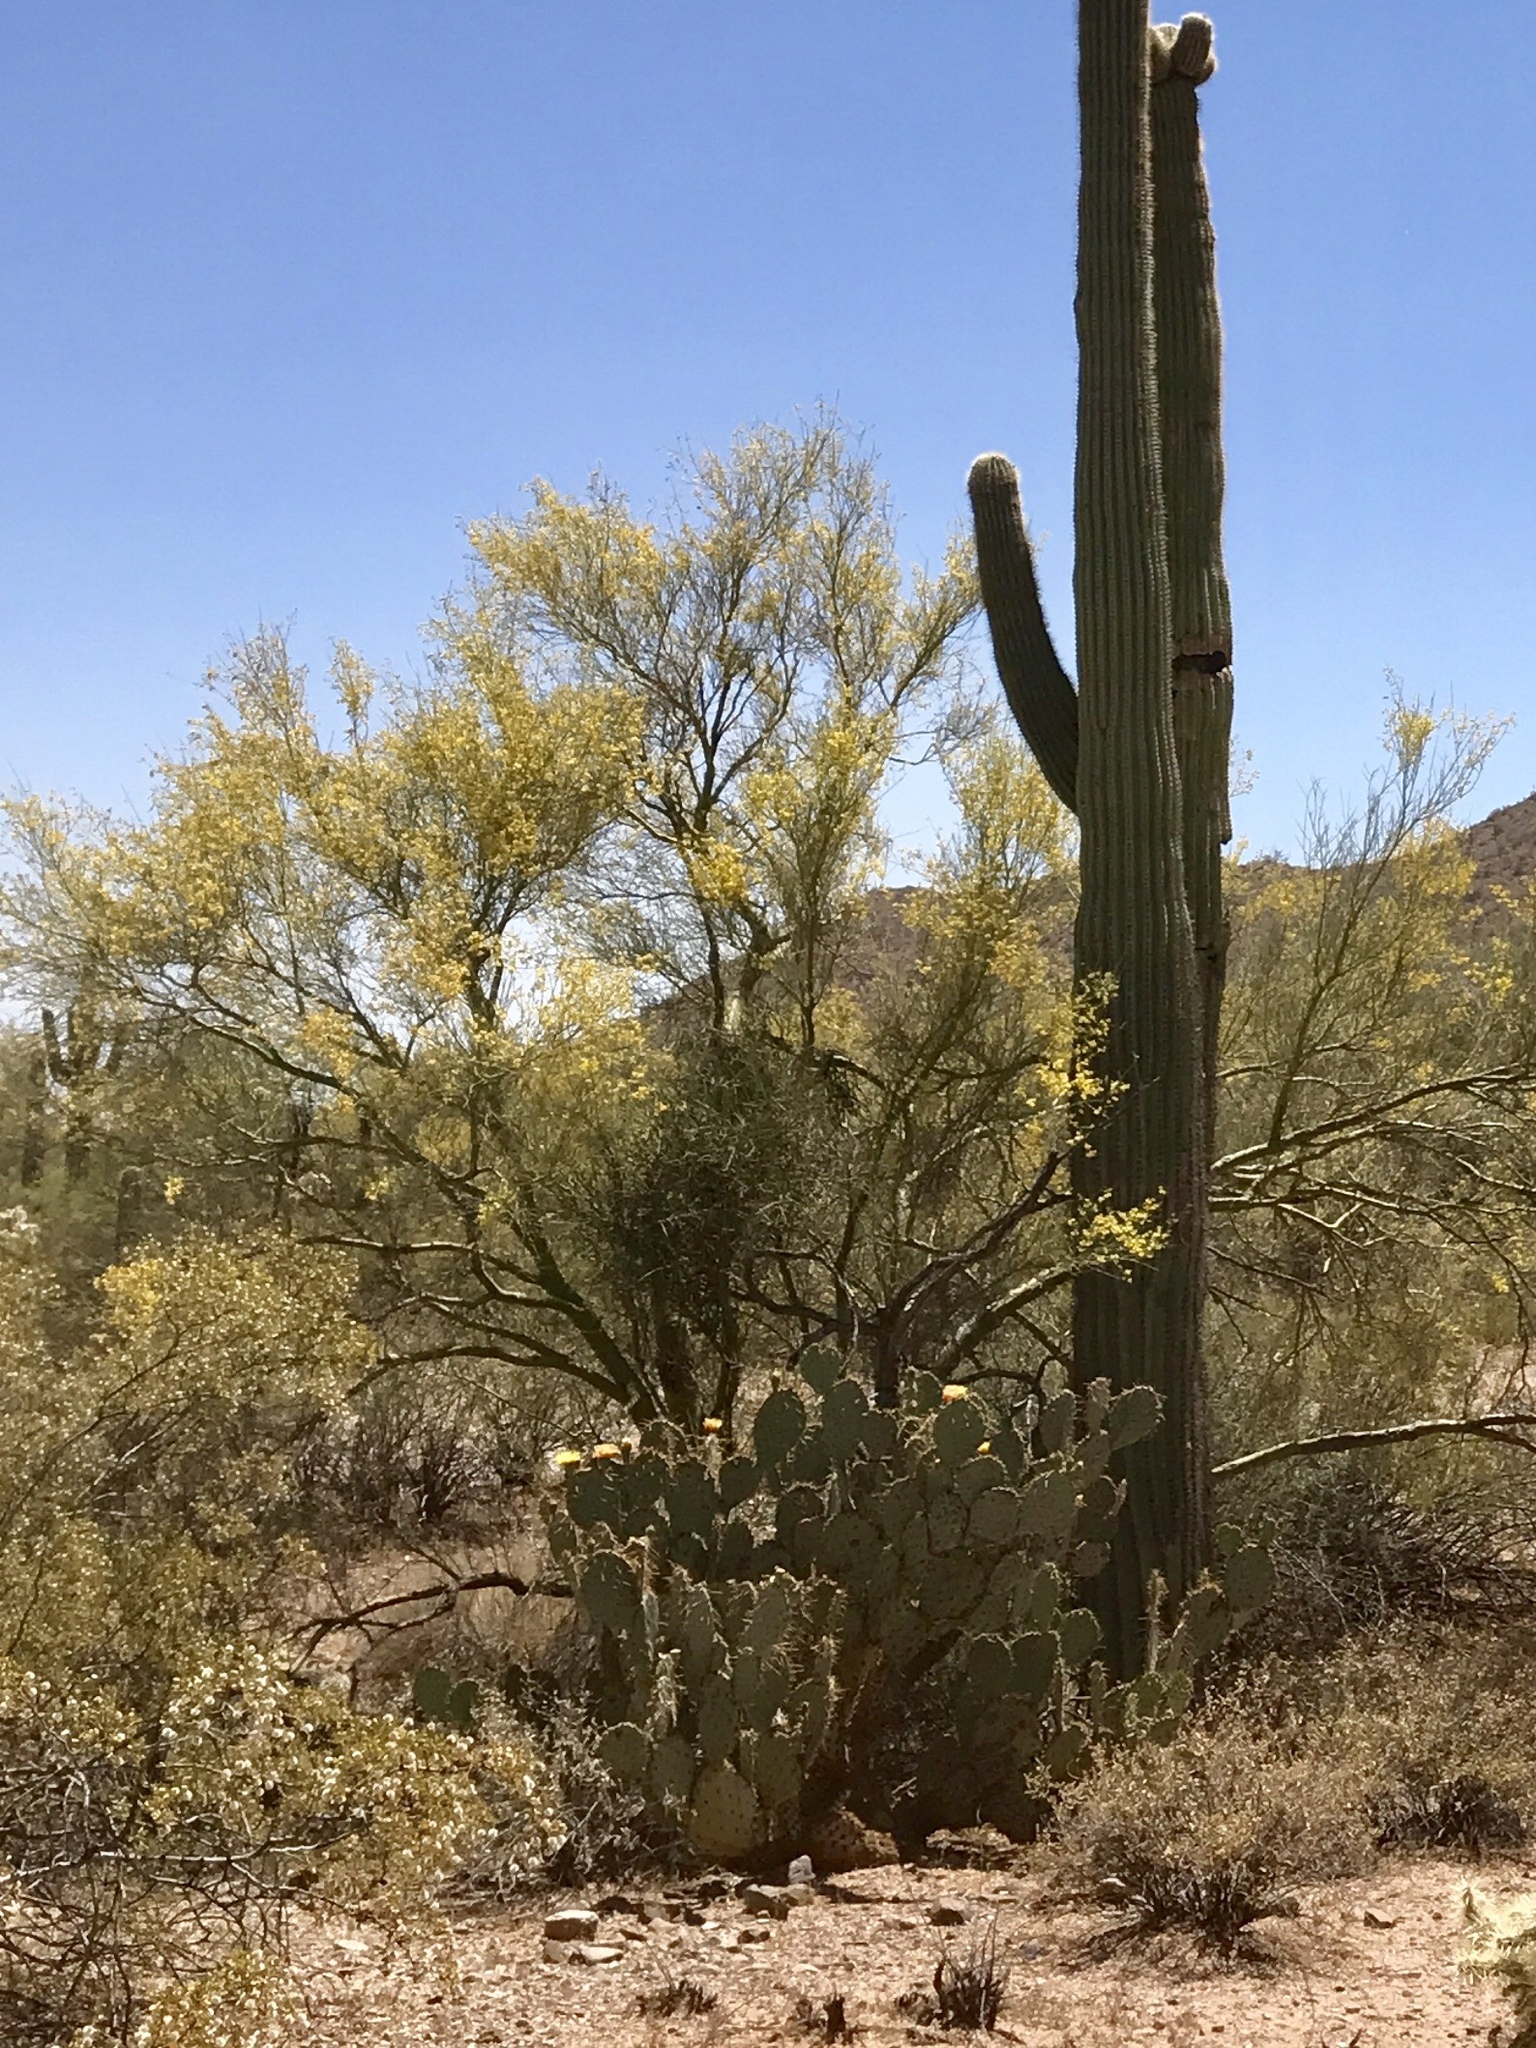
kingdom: Plantae
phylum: Tracheophyta
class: Magnoliopsida
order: Fabales
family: Fabaceae
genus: Parkinsonia
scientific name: Parkinsonia microphylla
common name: Yellow paloverde
